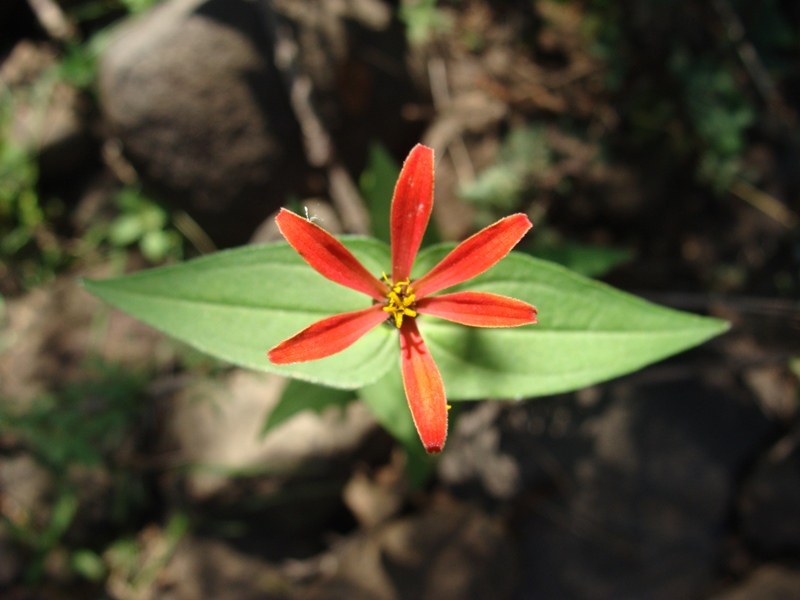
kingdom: Plantae
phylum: Tracheophyta
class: Magnoliopsida
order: Asterales
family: Asteraceae
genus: Zinnia
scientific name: Zinnia peruviana
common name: Peruvian zinnia
